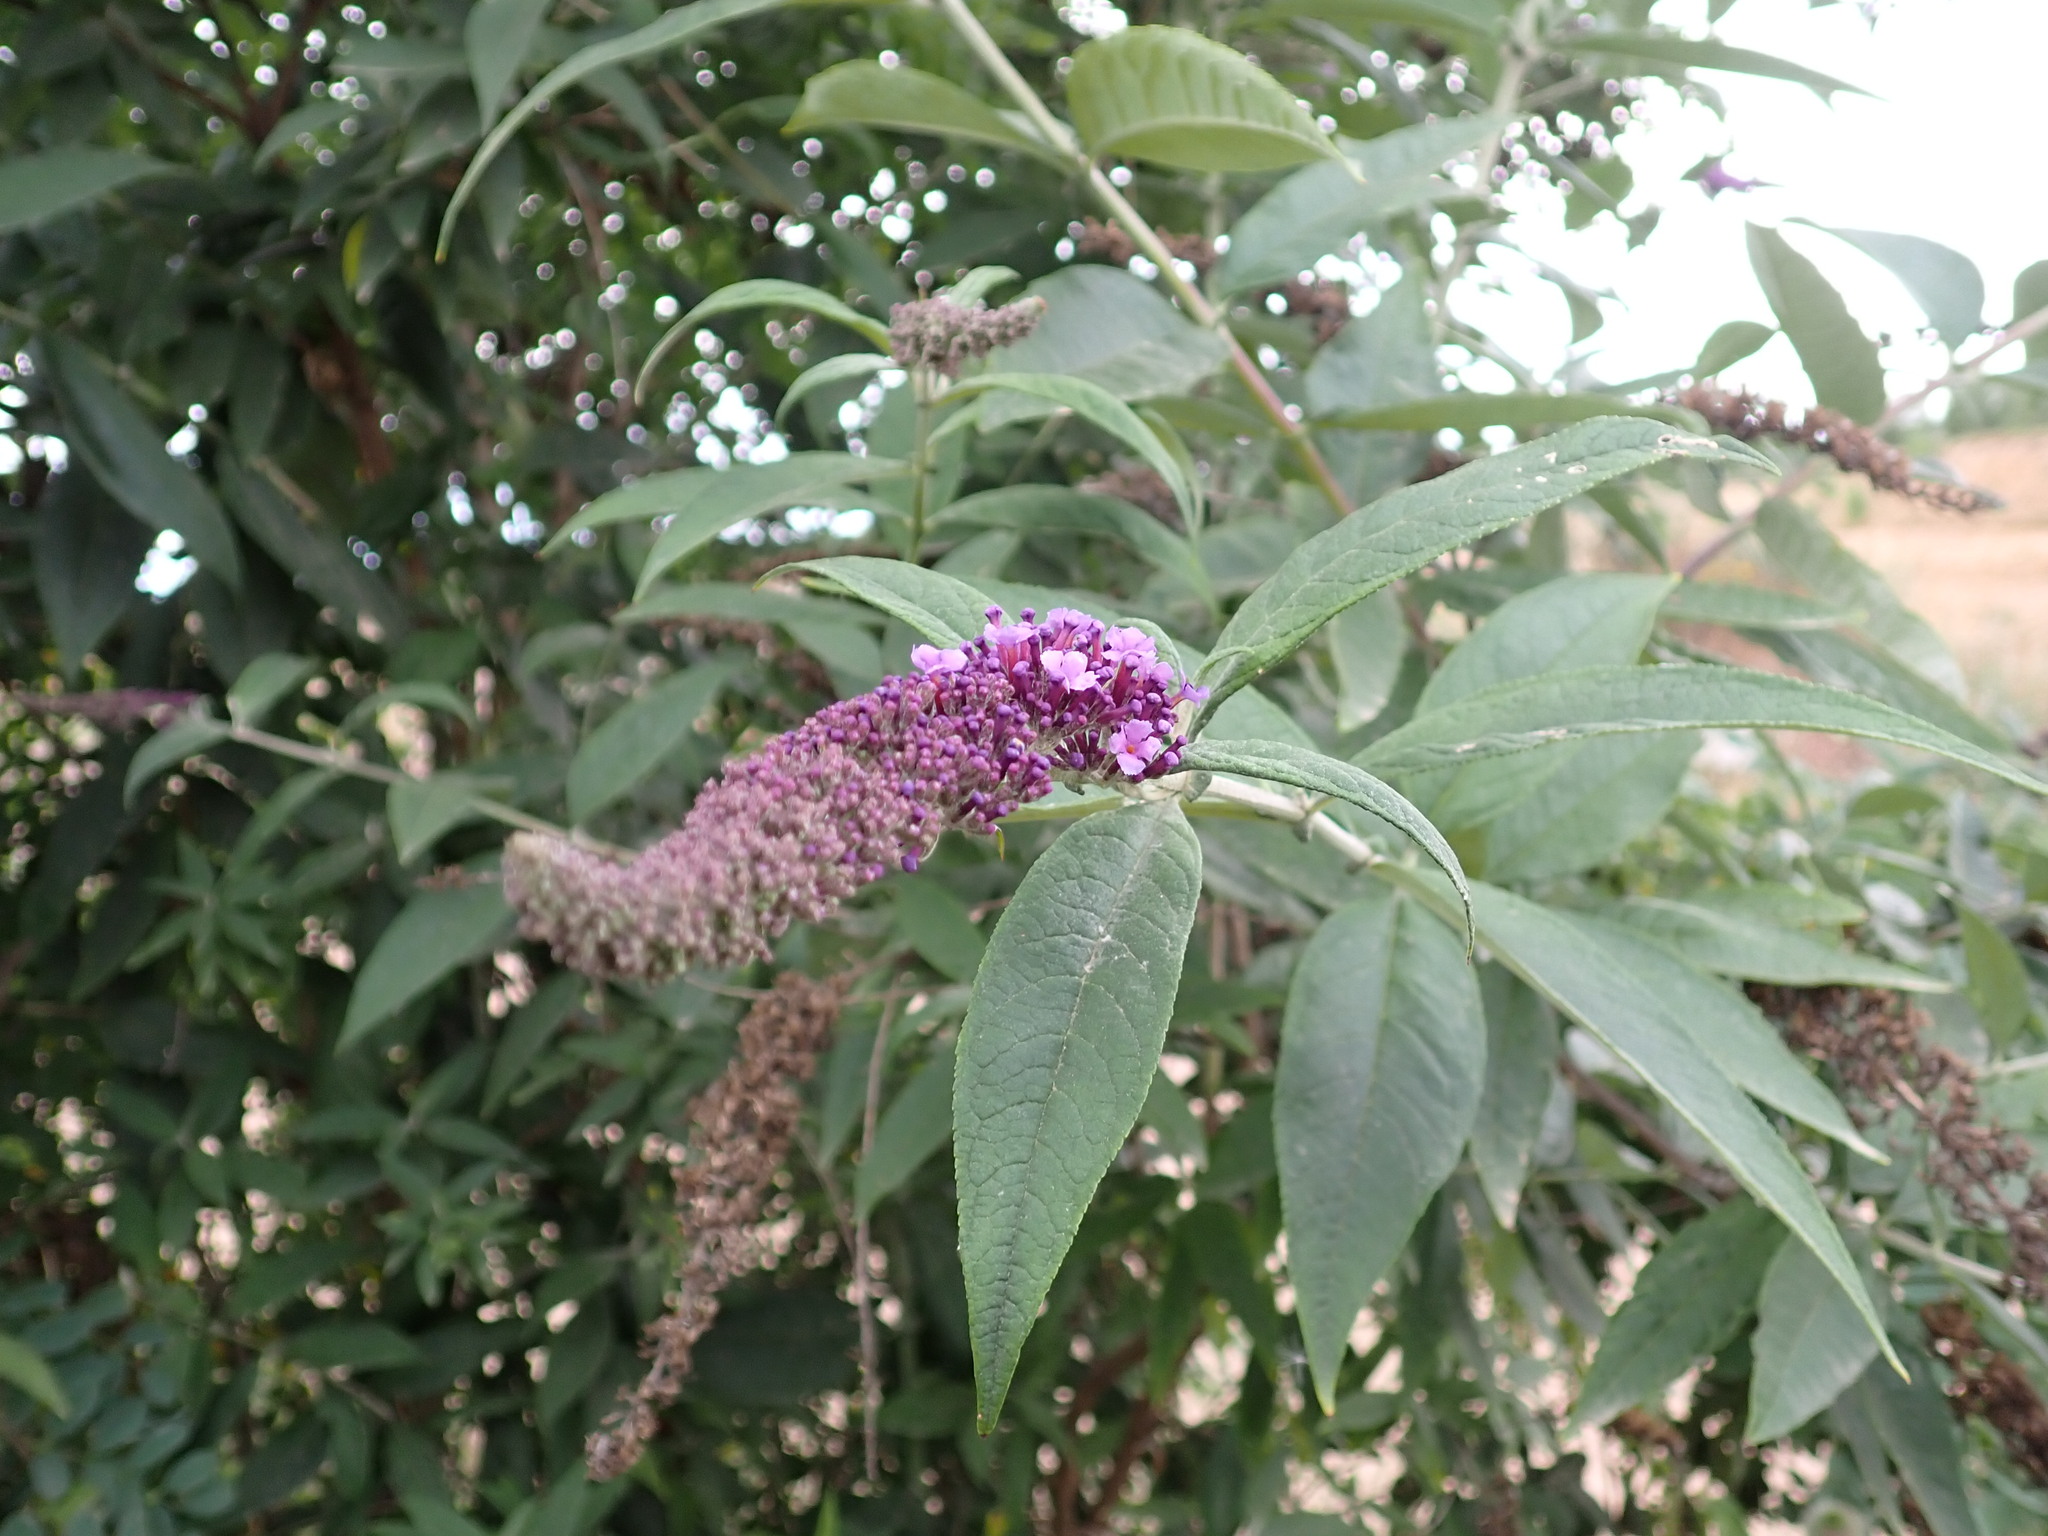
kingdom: Plantae
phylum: Tracheophyta
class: Magnoliopsida
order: Lamiales
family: Scrophulariaceae
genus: Buddleja
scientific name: Buddleja davidii
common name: Butterfly-bush
